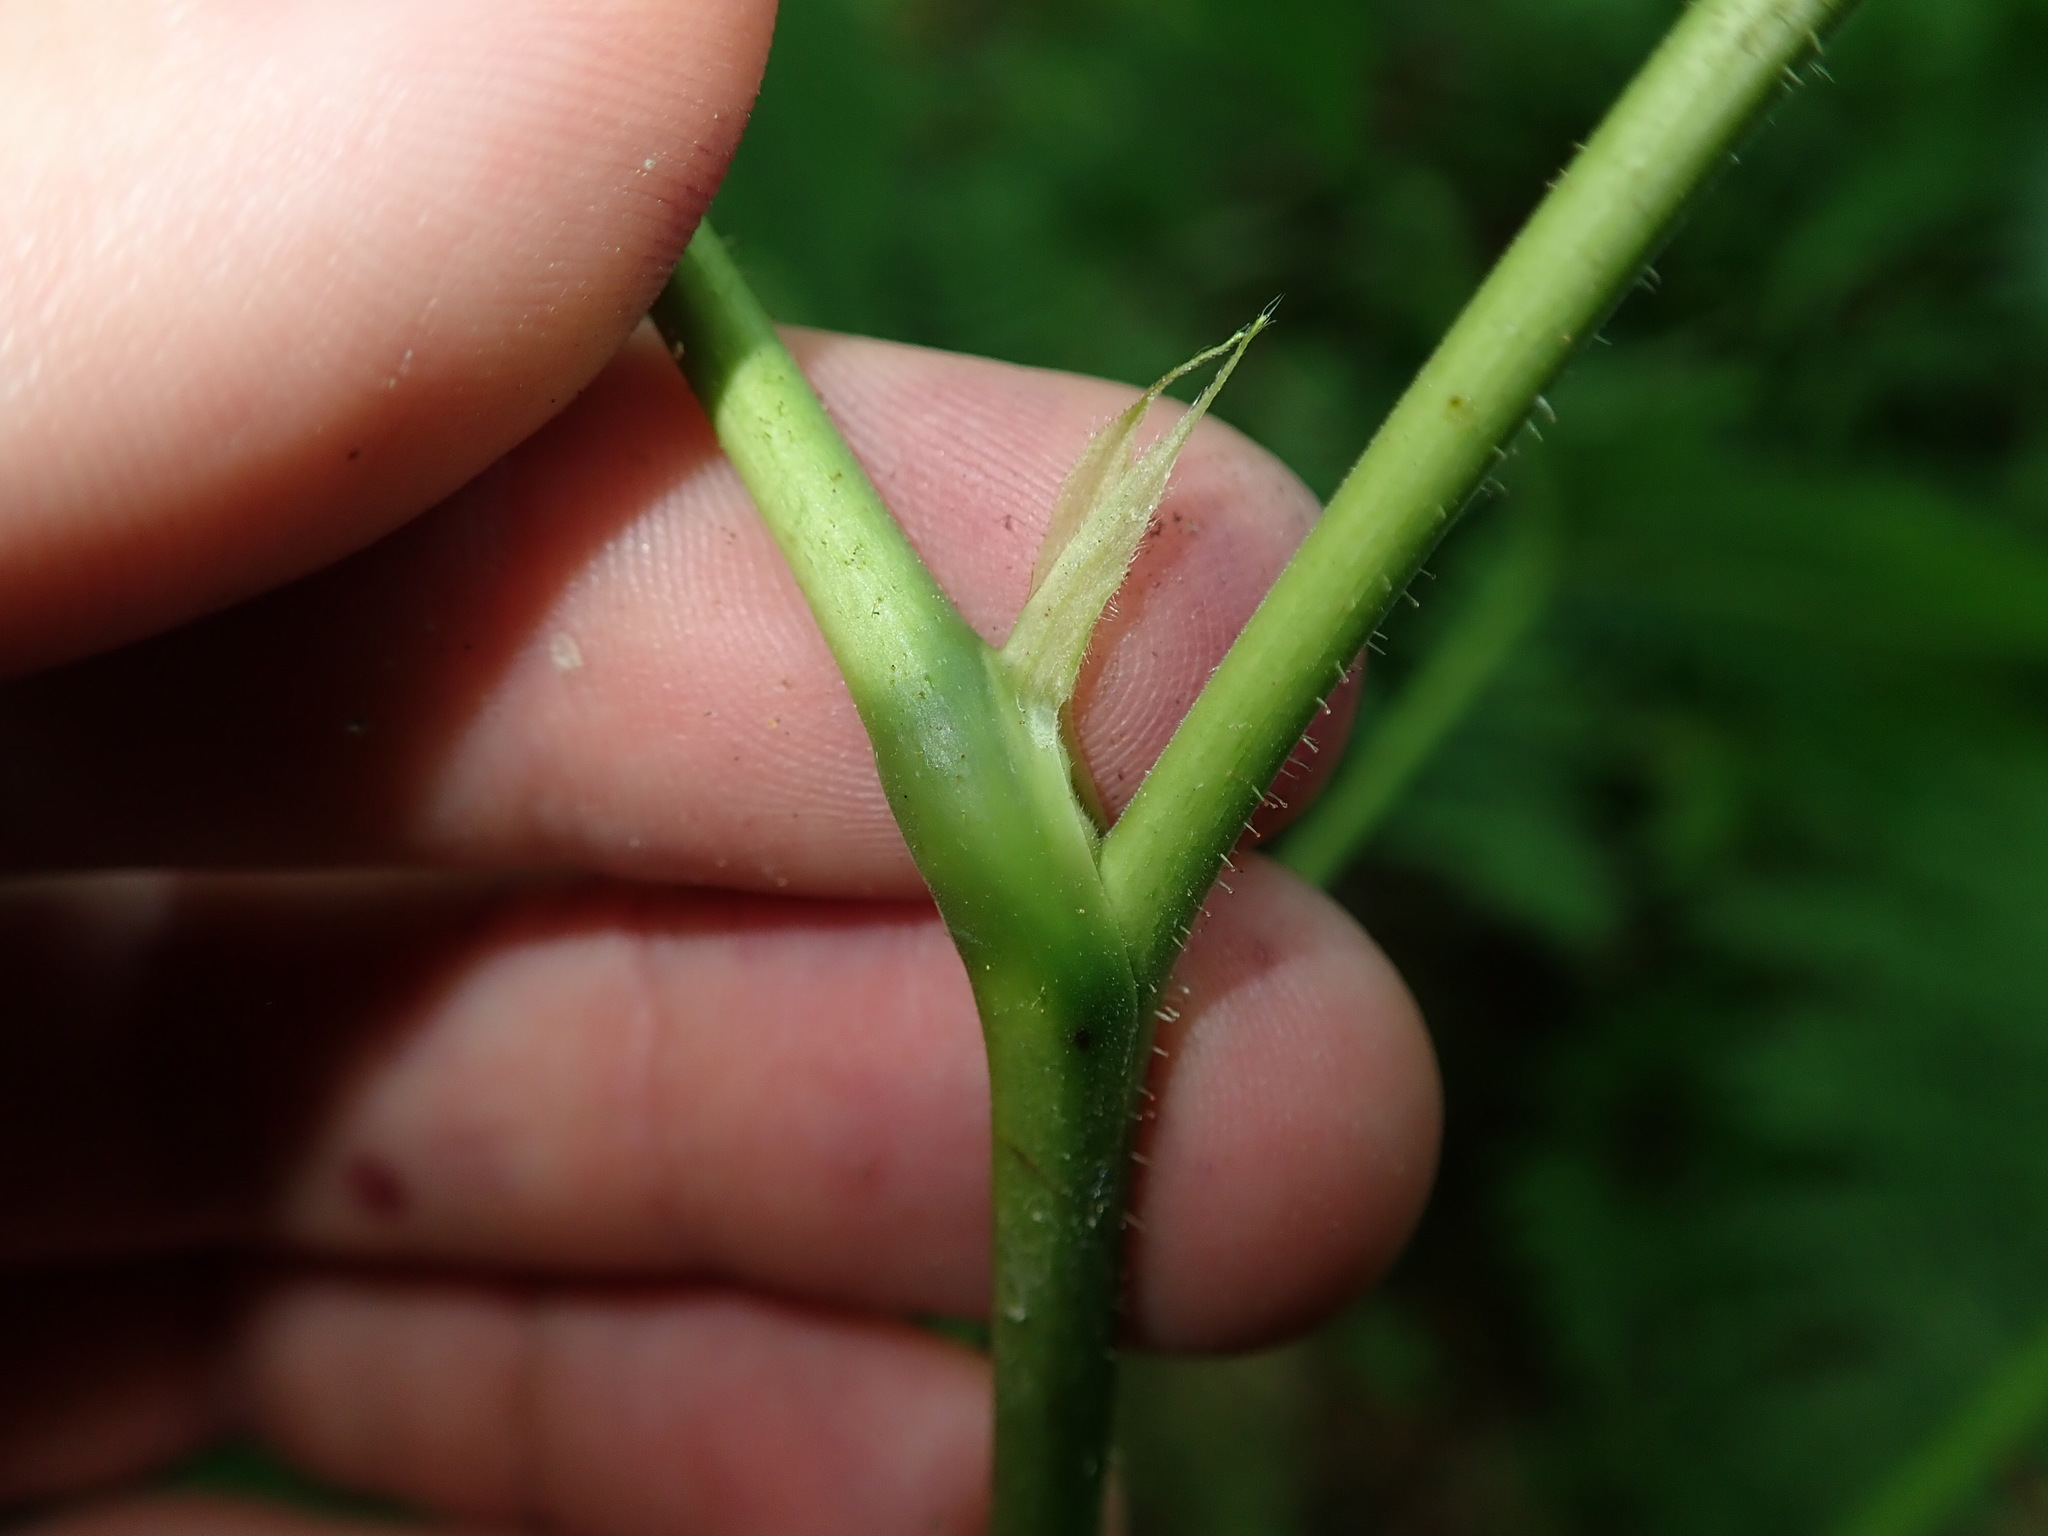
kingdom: Plantae
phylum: Tracheophyta
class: Magnoliopsida
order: Saxifragales
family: Grossulariaceae
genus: Ribes
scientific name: Ribes bracteosum
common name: California black currant
